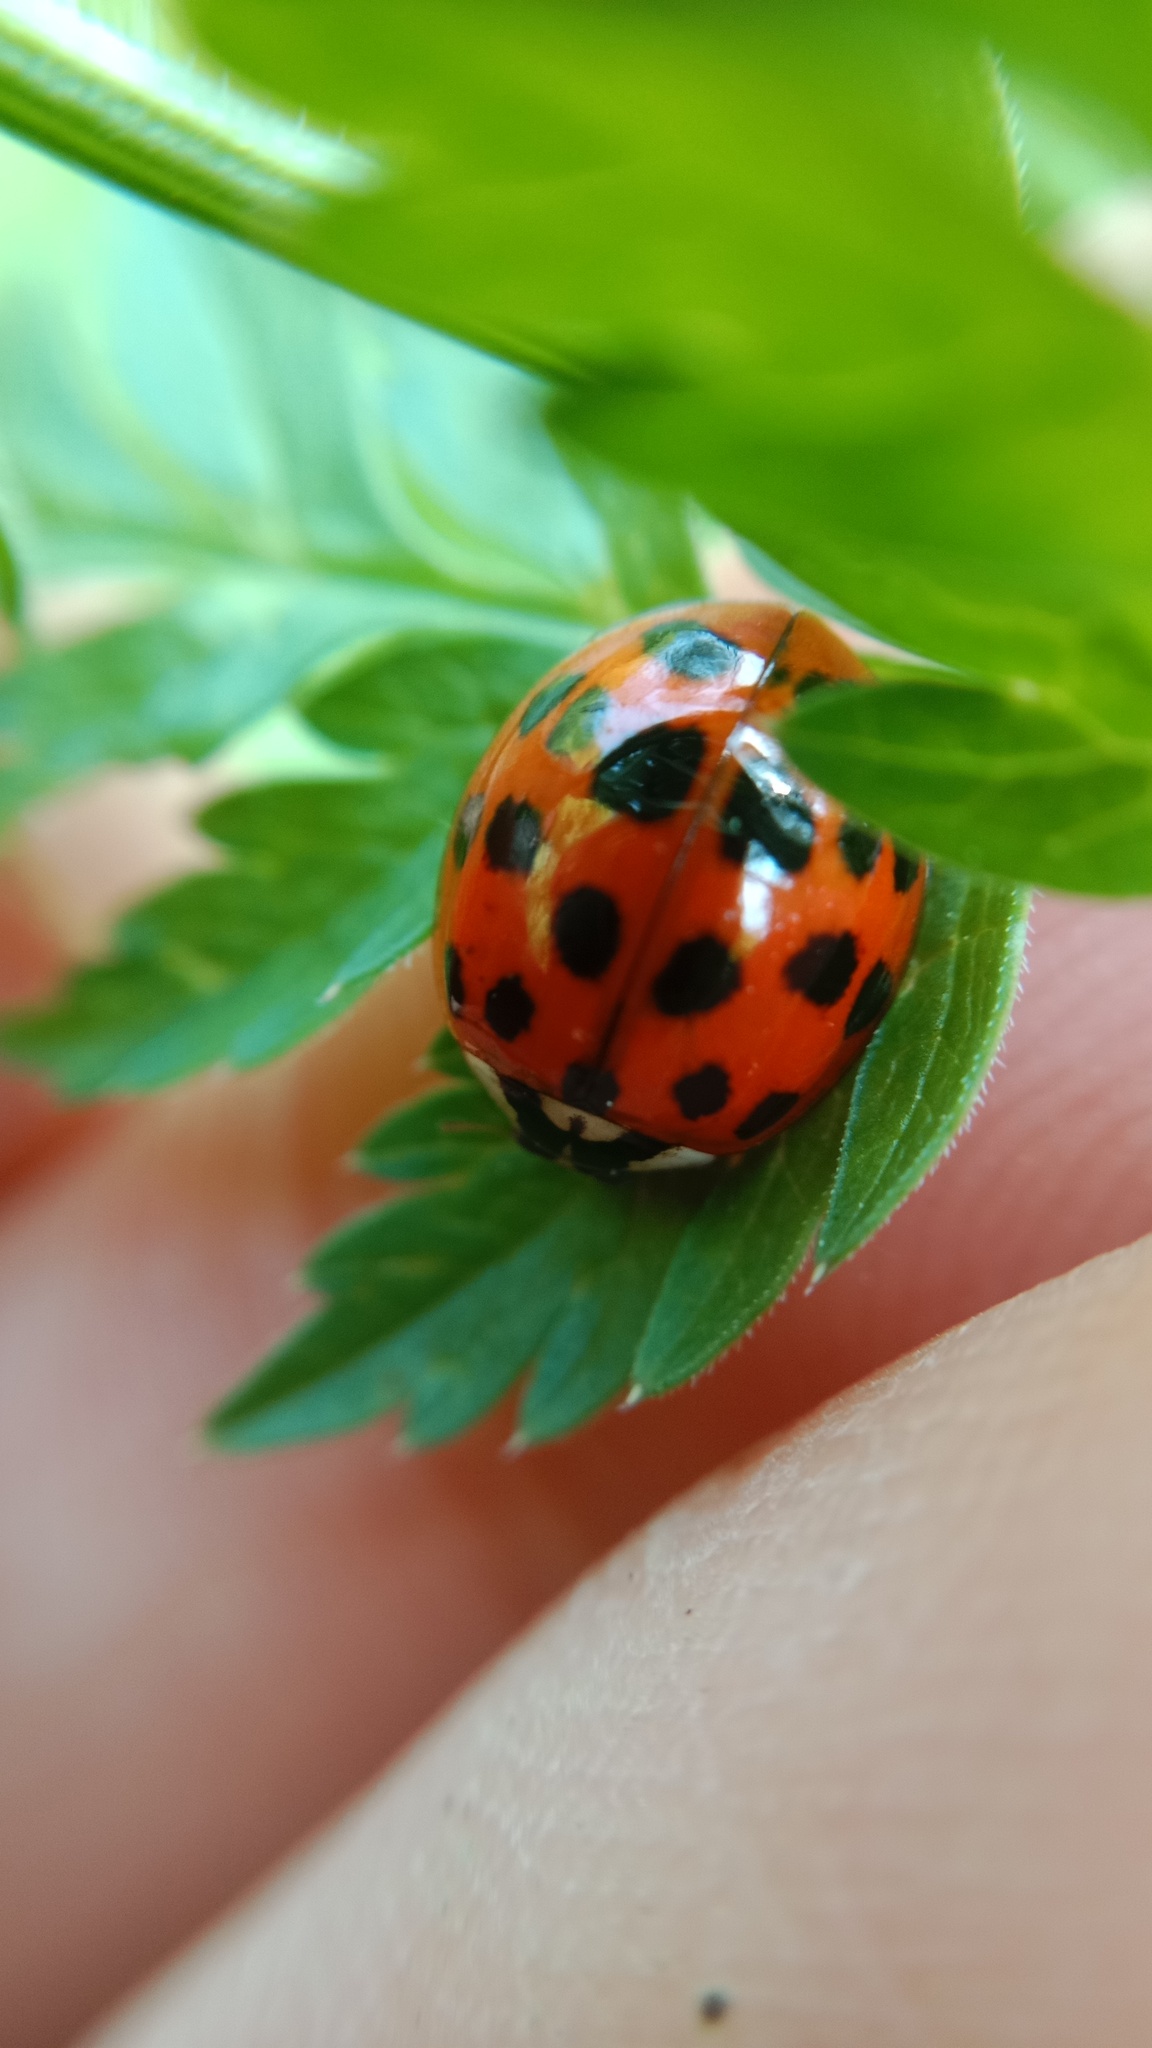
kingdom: Animalia
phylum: Arthropoda
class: Insecta
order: Coleoptera
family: Coccinellidae
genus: Harmonia
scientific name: Harmonia axyridis
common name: Harlequin ladybird
